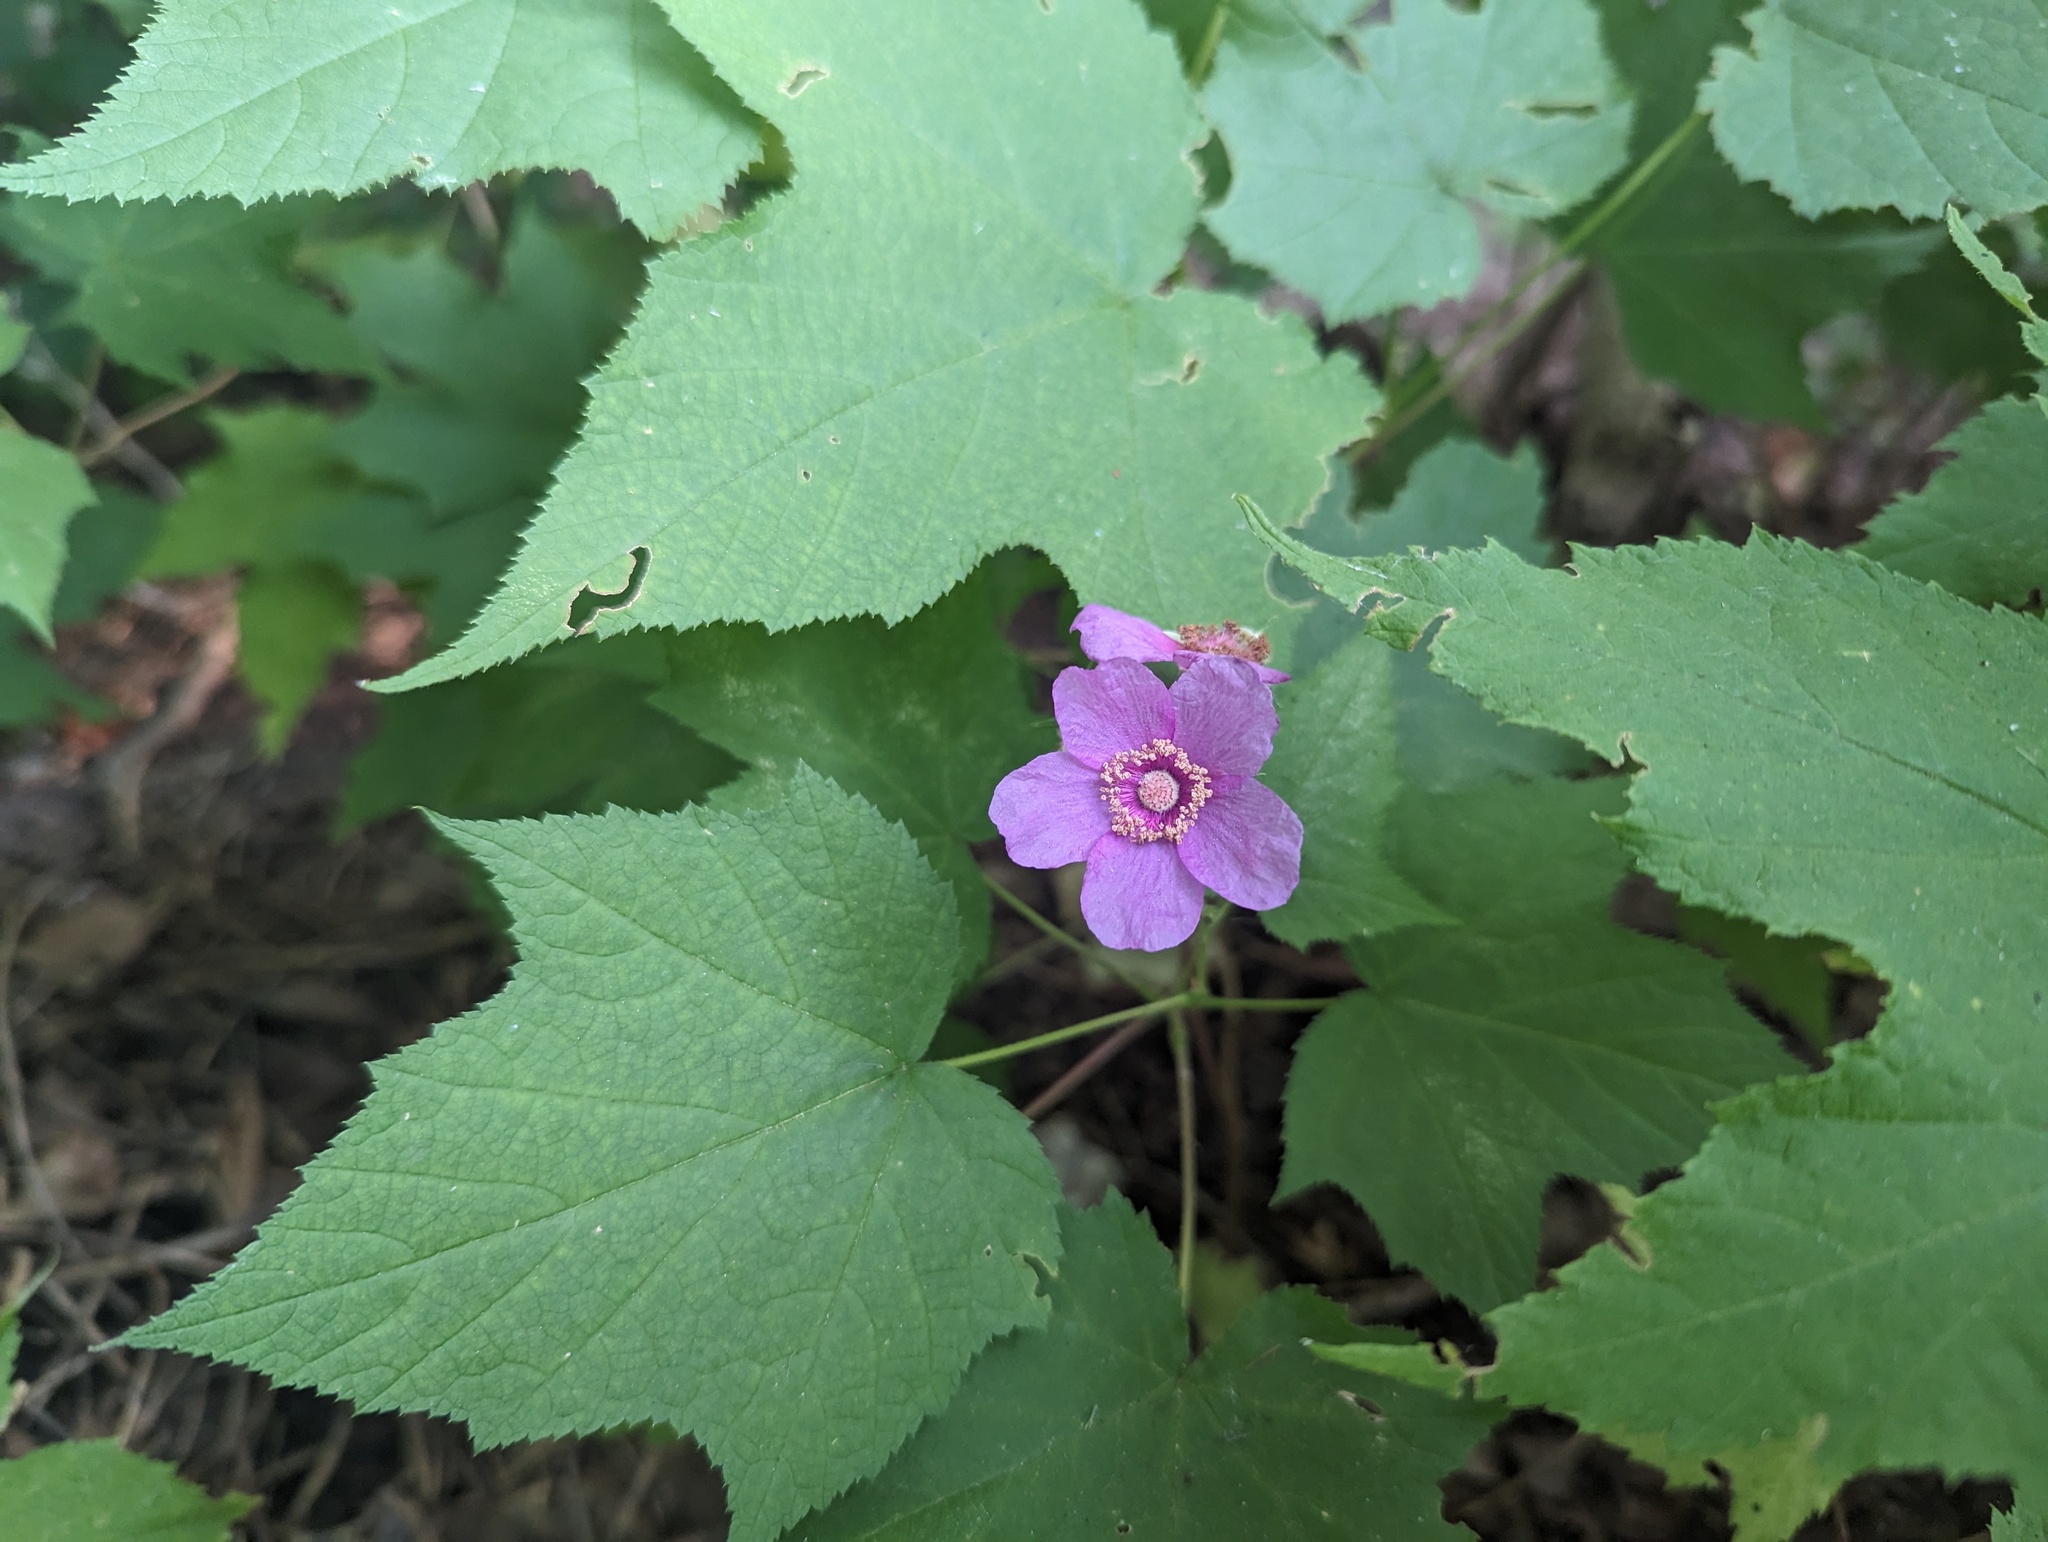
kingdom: Plantae
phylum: Tracheophyta
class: Magnoliopsida
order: Rosales
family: Rosaceae
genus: Rubus
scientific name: Rubus odoratus
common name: Purple-flowered raspberry
